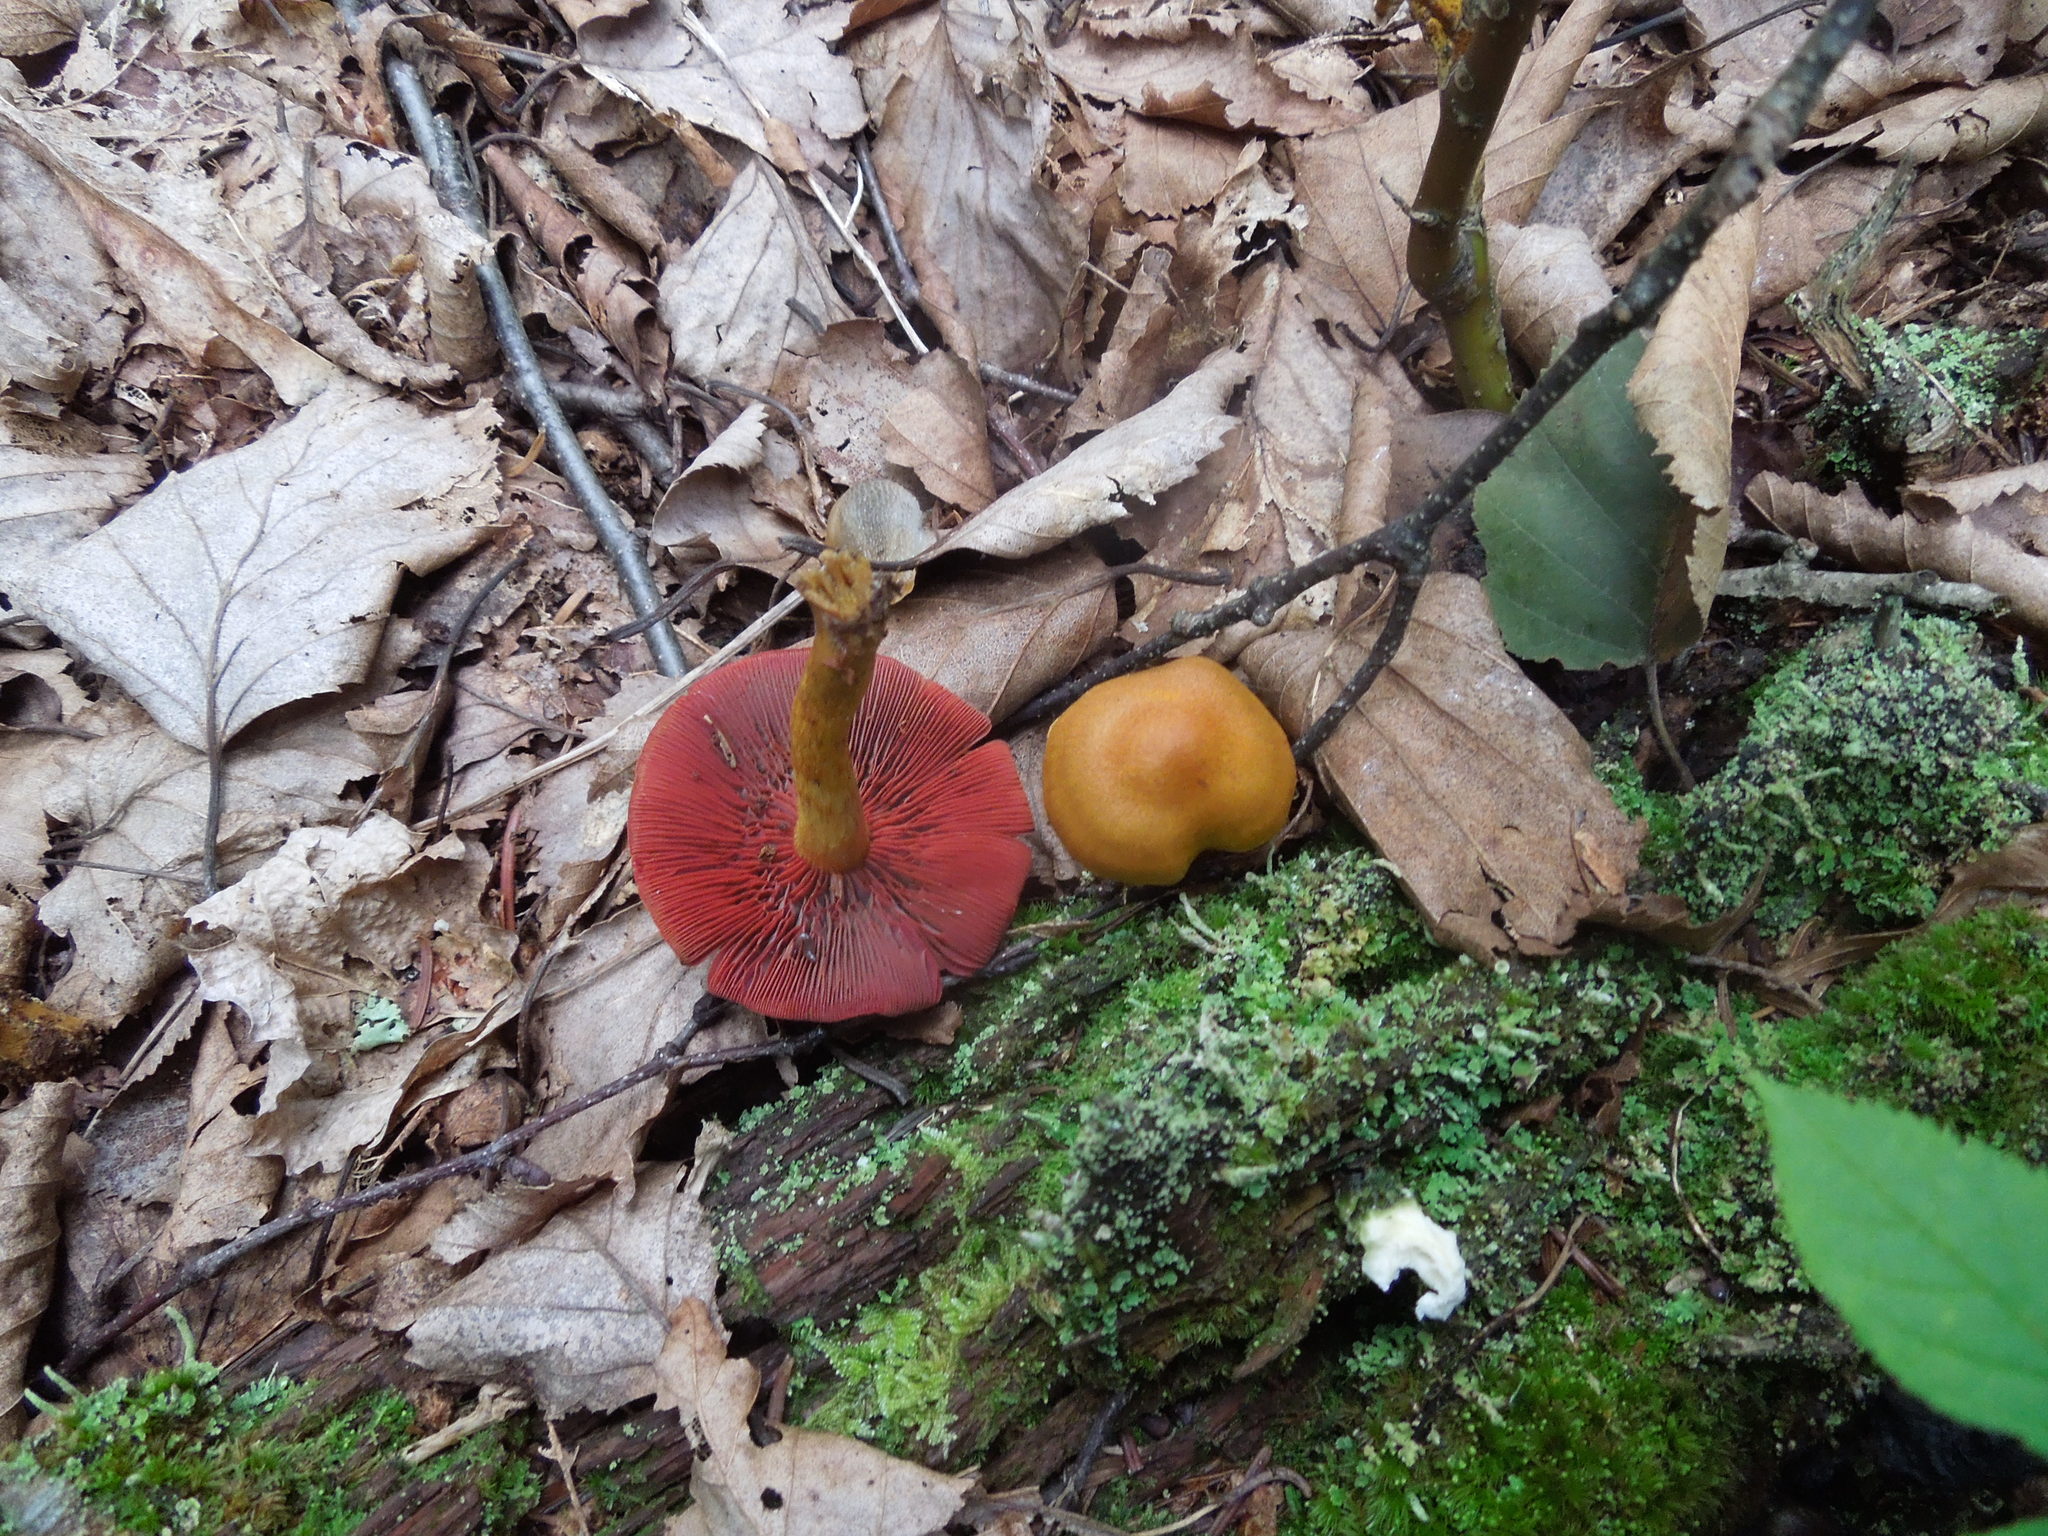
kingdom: Fungi
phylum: Basidiomycota
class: Agaricomycetes
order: Agaricales
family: Cortinariaceae
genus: Cortinarius
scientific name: Cortinarius semisanguineus
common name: Surprise webcap
